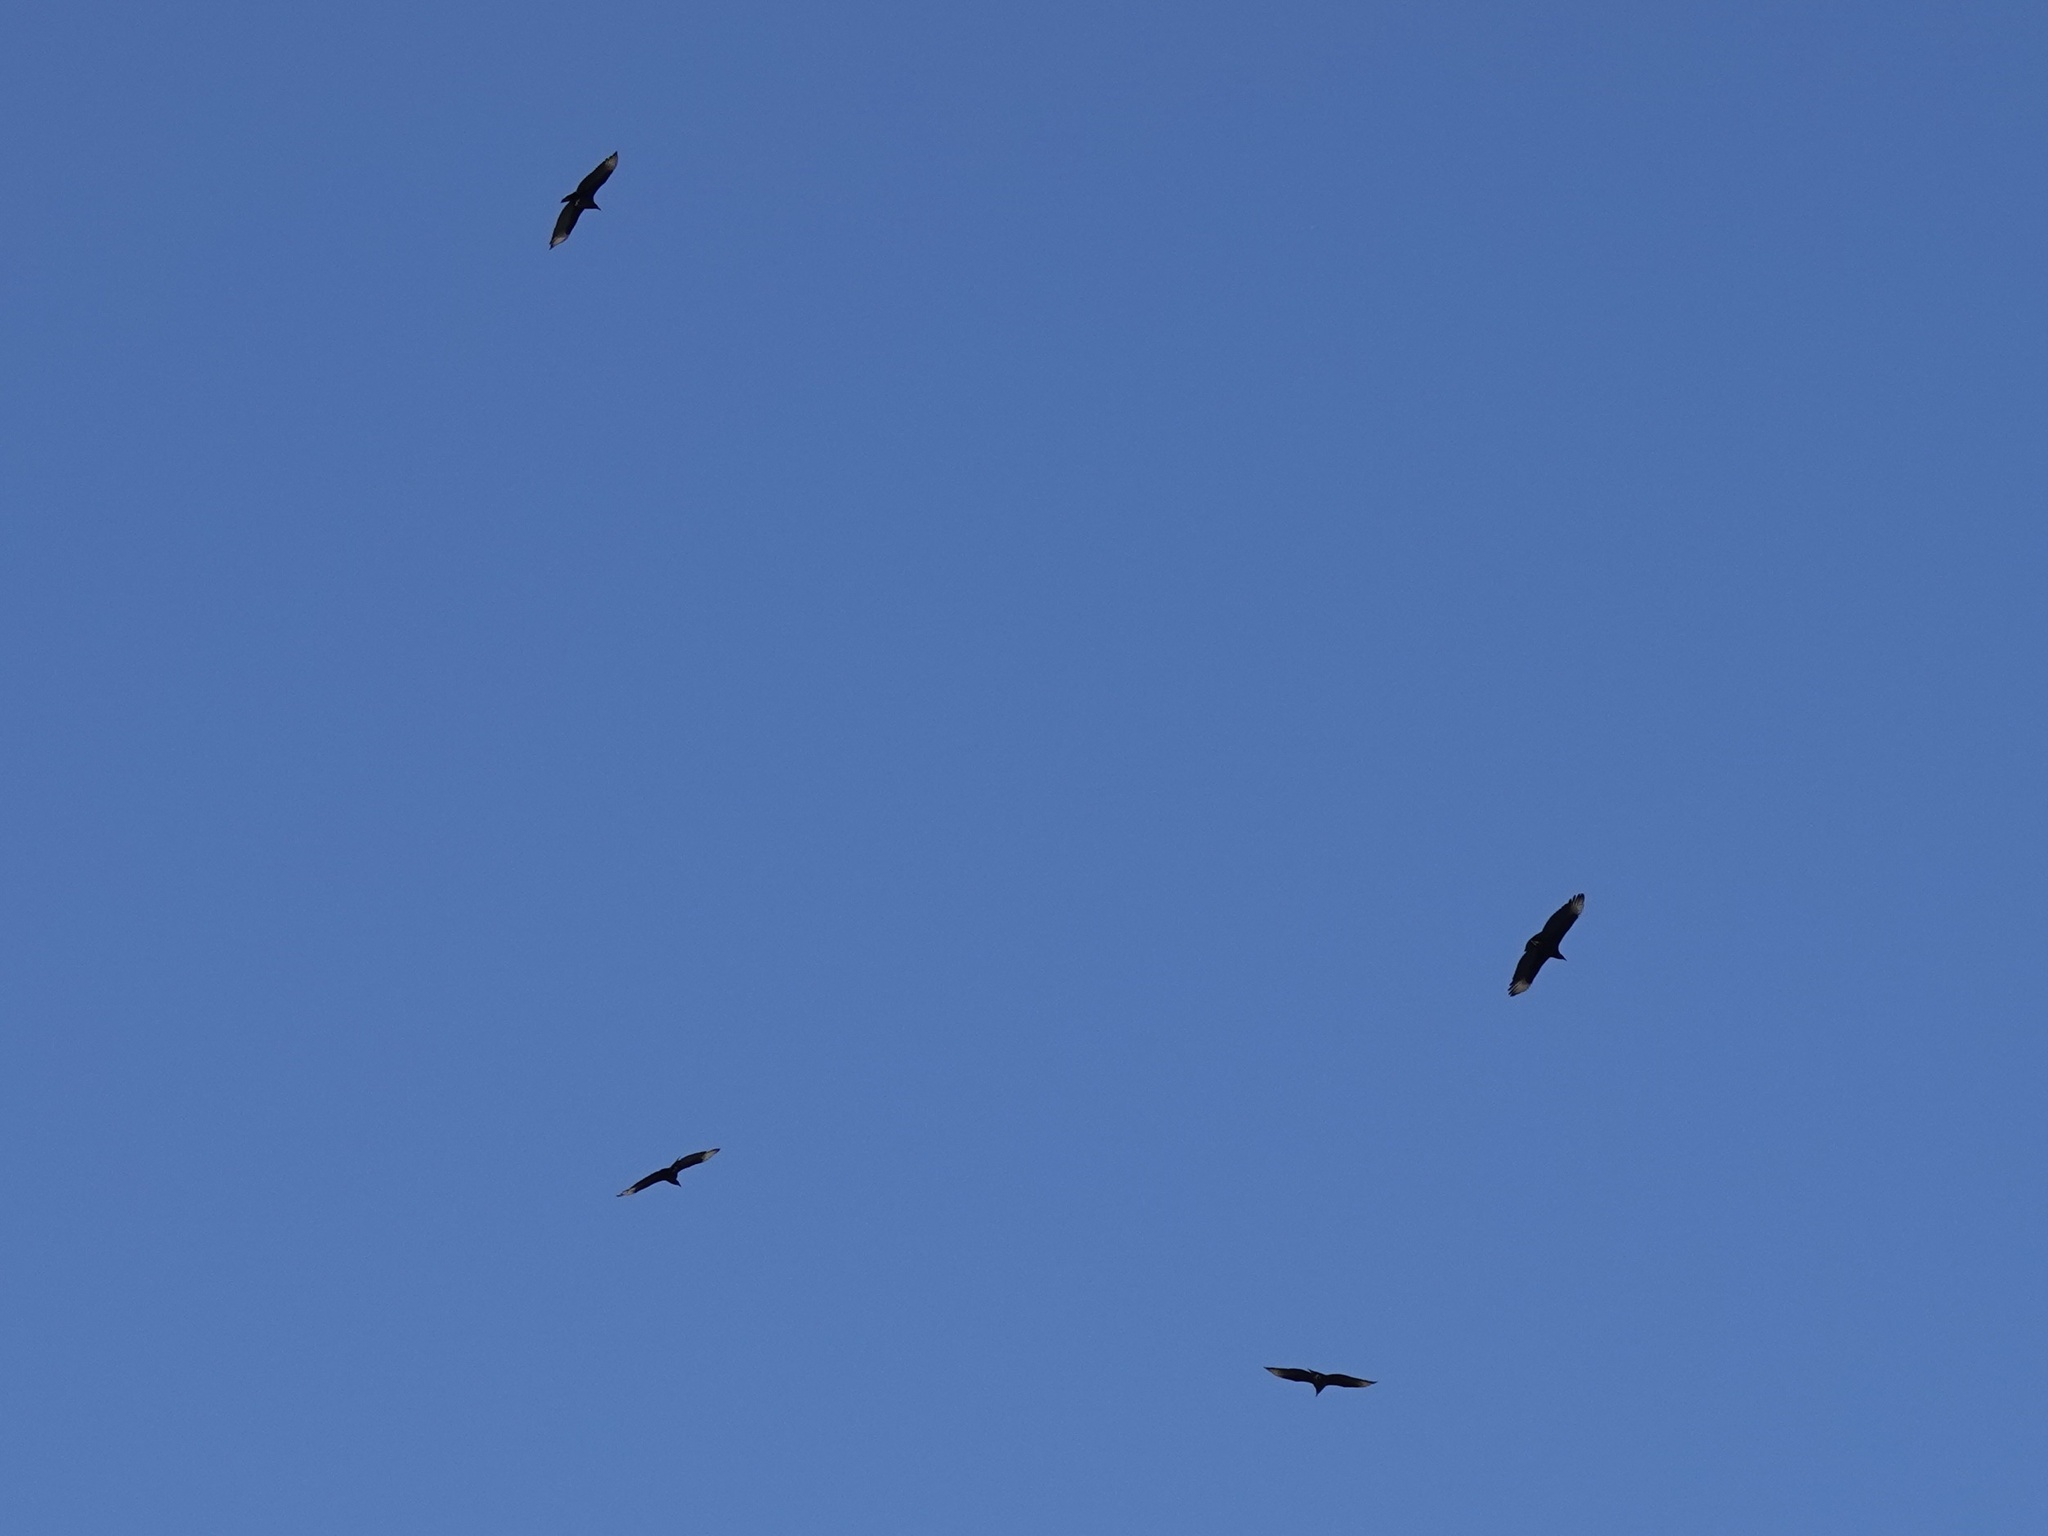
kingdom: Animalia
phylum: Chordata
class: Aves
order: Accipitriformes
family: Cathartidae
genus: Coragyps
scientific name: Coragyps atratus
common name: Black vulture
